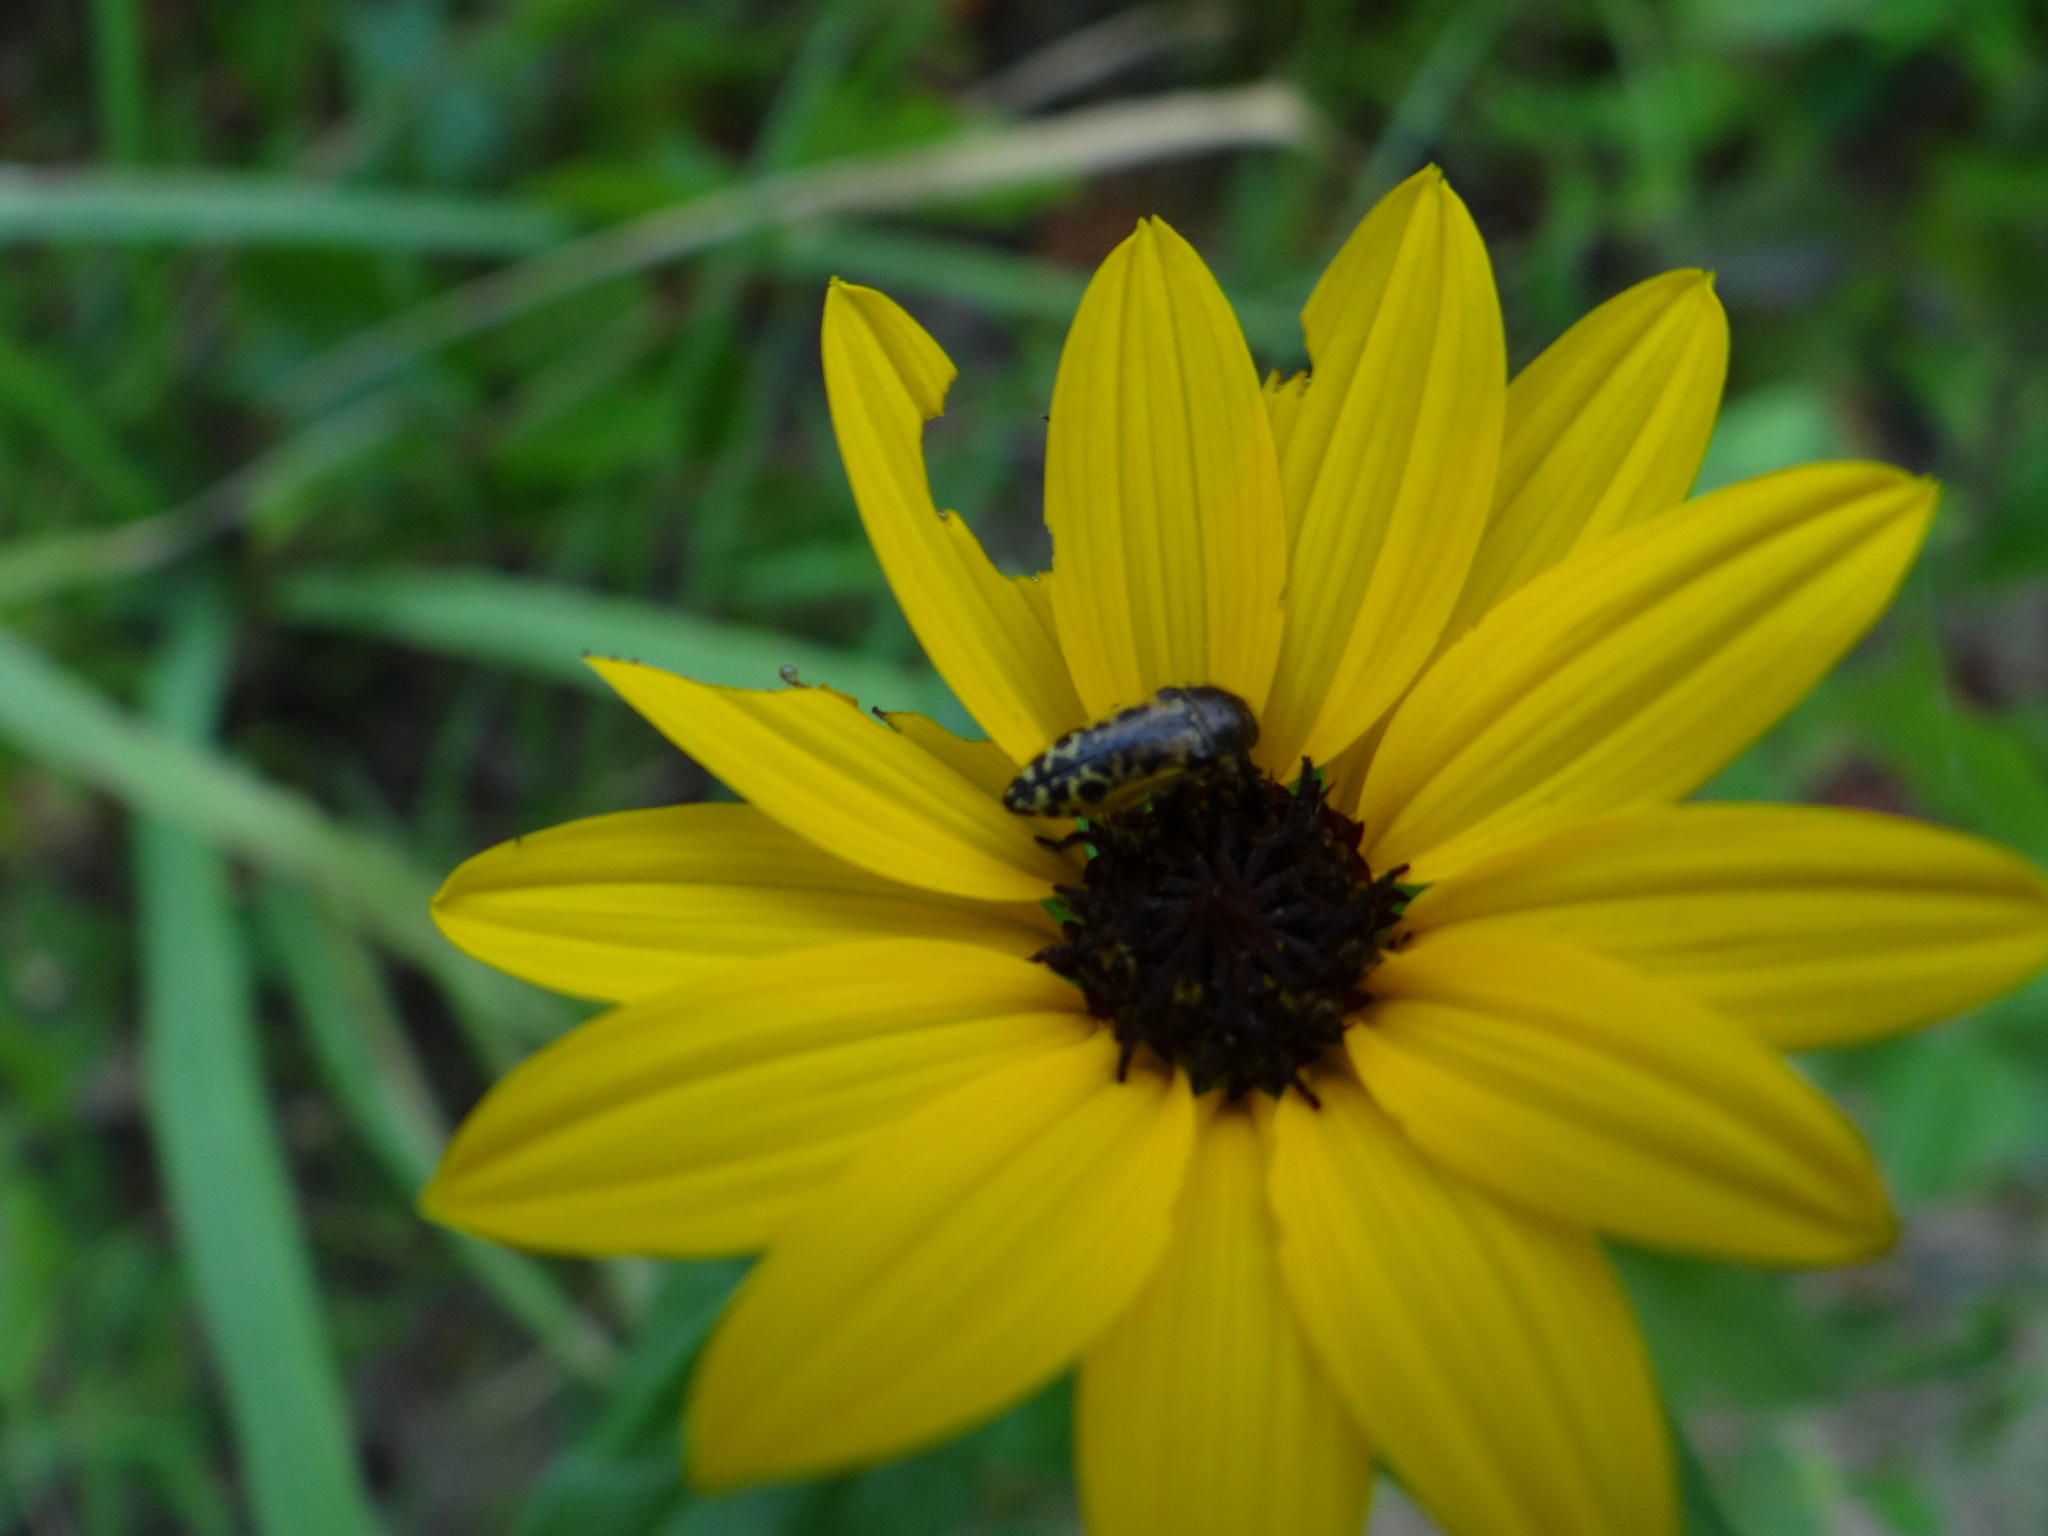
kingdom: Animalia
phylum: Arthropoda
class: Insecta
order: Coleoptera
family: Buprestidae
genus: Acmaeodera
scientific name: Acmaeodera mixta
